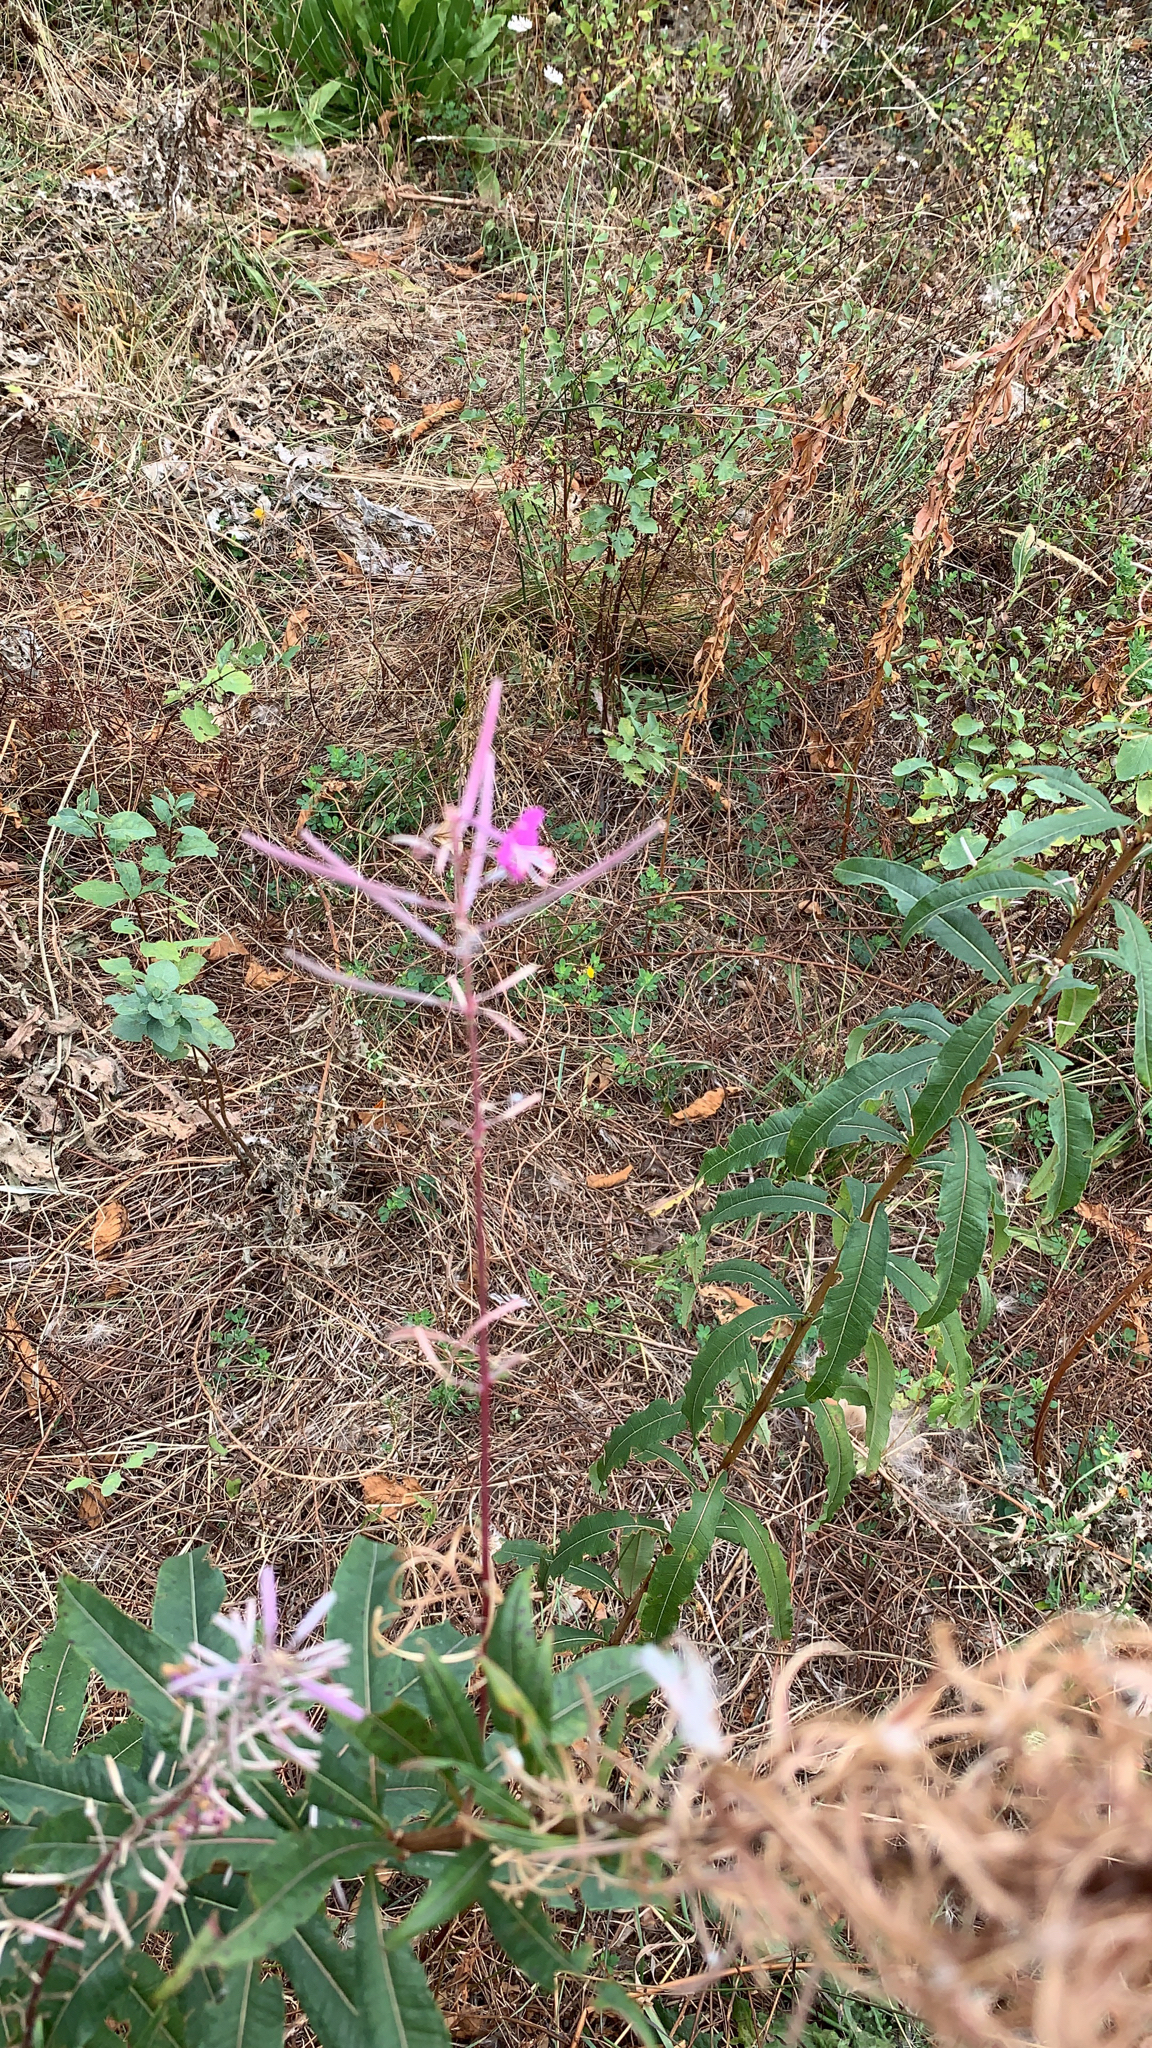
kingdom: Plantae
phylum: Tracheophyta
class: Magnoliopsida
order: Myrtales
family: Onagraceae
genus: Chamaenerion
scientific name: Chamaenerion angustifolium
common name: Fireweed
